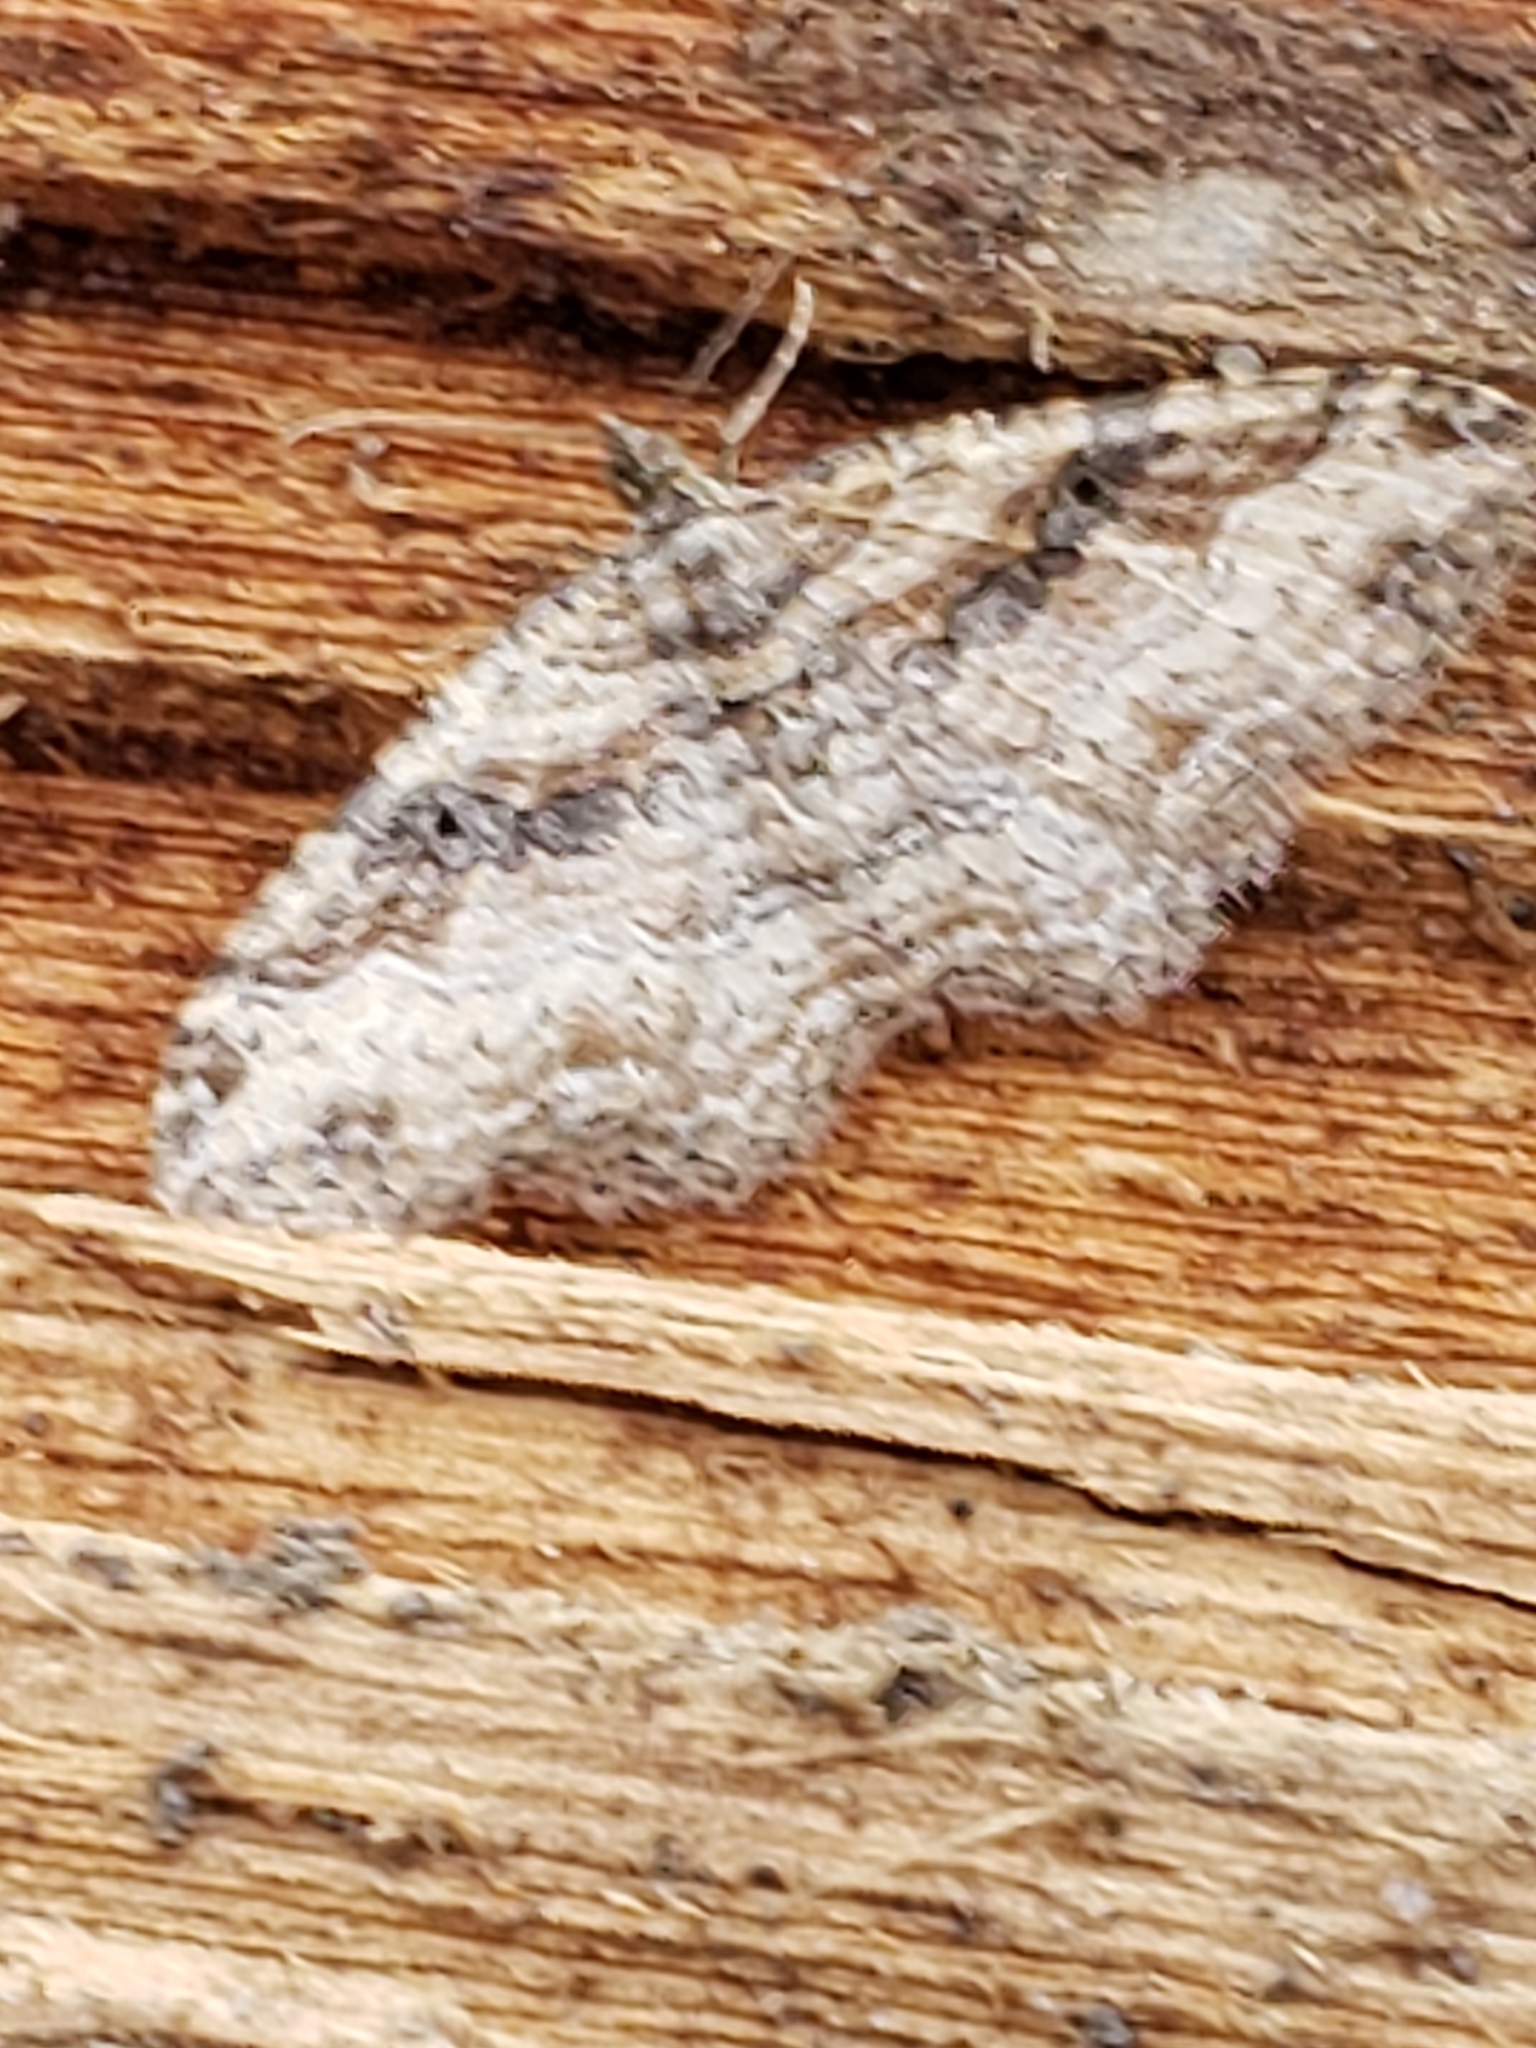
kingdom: Animalia
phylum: Arthropoda
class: Insecta
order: Lepidoptera
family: Geometridae
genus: Costaconvexa
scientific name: Costaconvexa centrostrigaria
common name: Bent-line carpet
